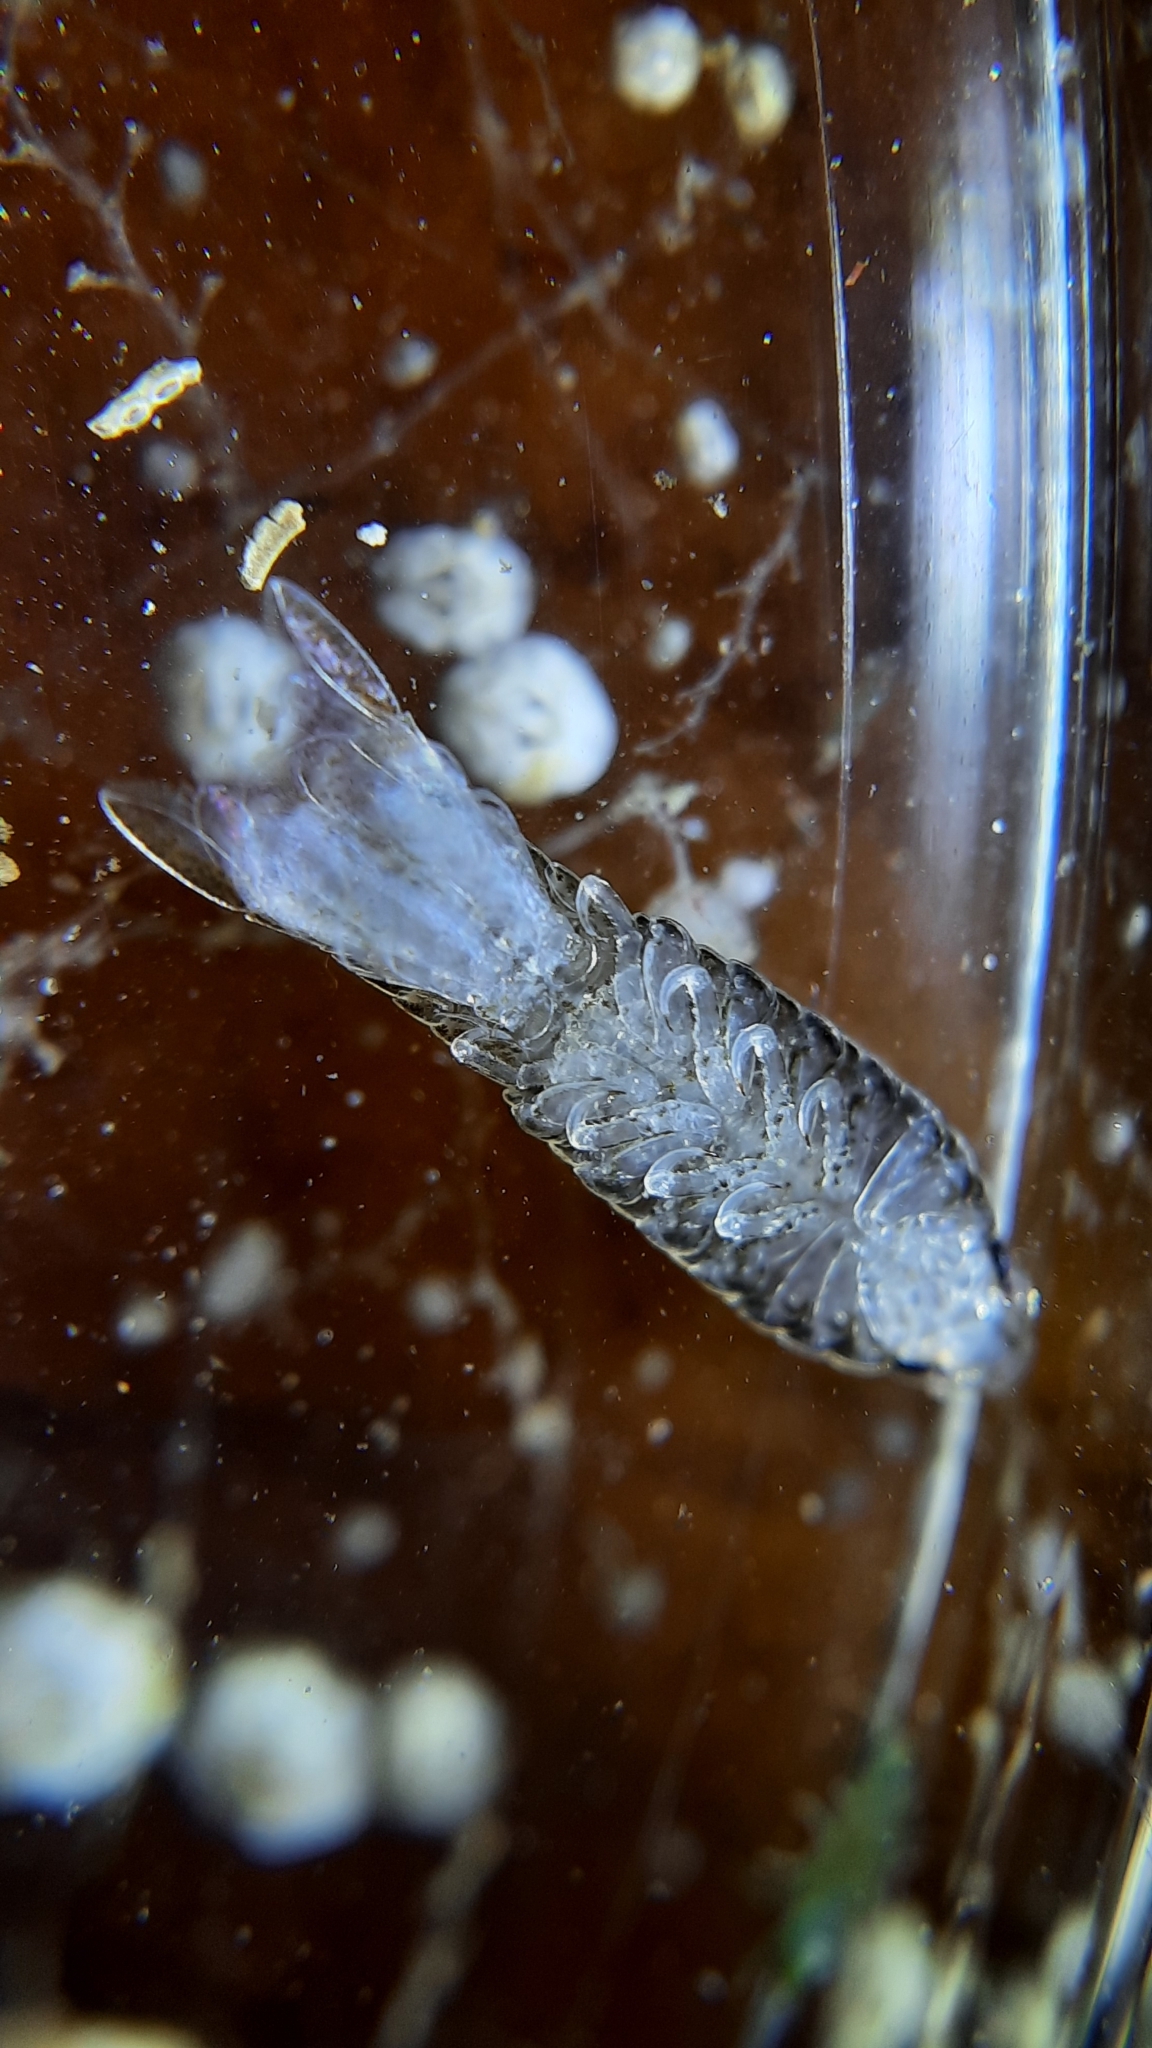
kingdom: Animalia
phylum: Arthropoda
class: Malacostraca
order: Isopoda
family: Cymothoidae
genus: Anilocra
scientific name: Anilocra
